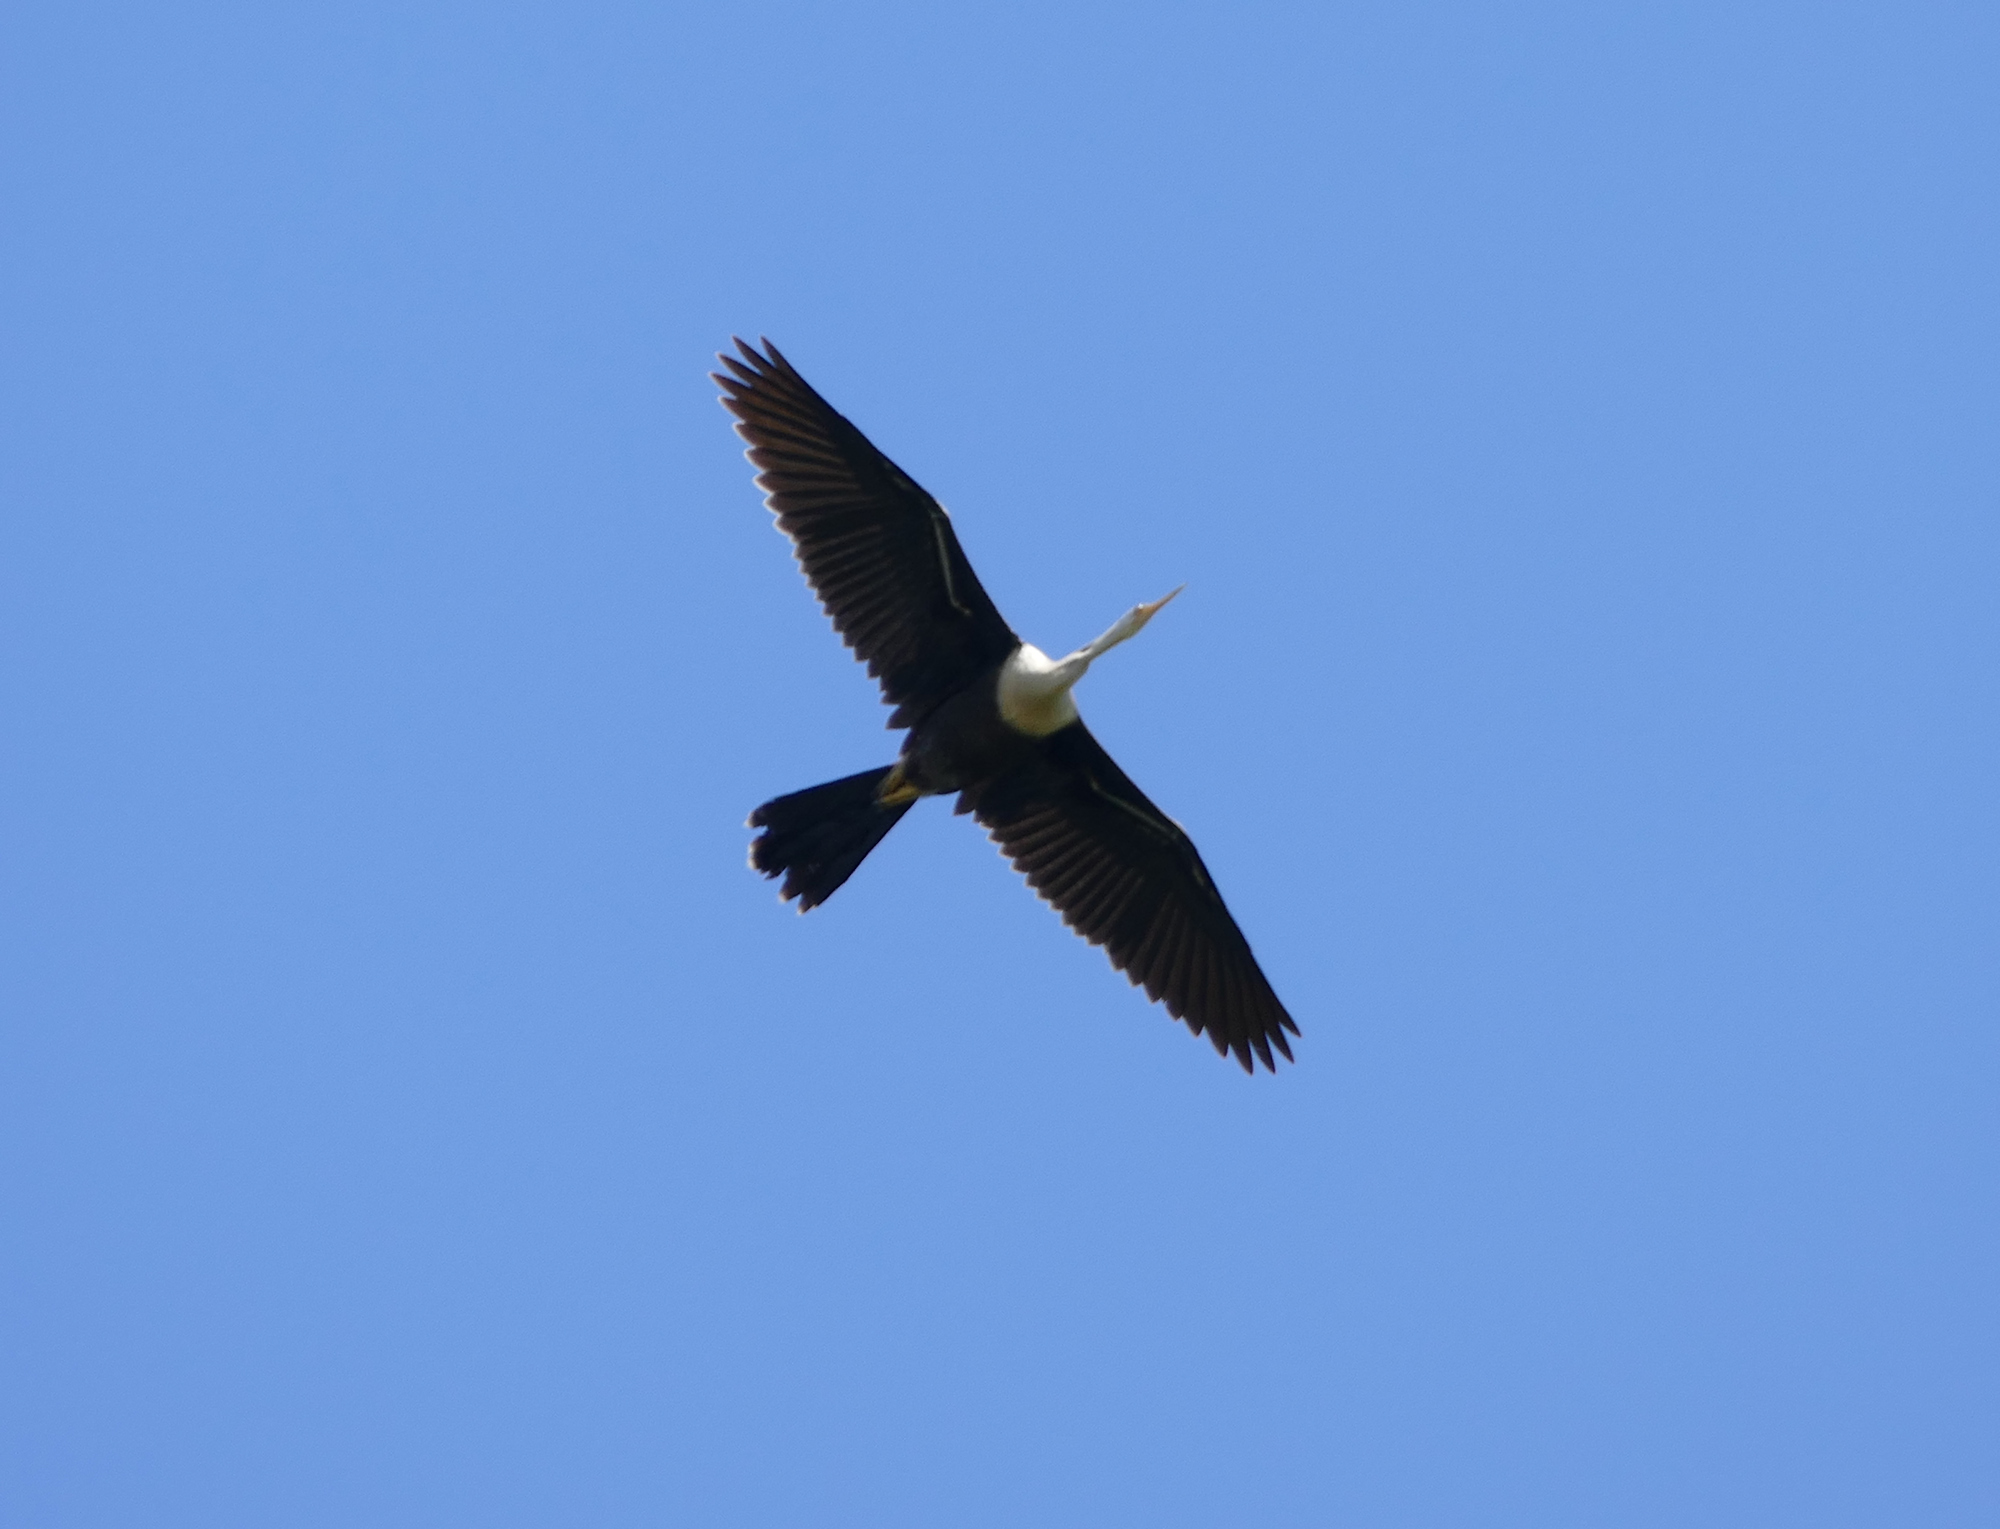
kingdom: Animalia
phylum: Chordata
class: Aves
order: Suliformes
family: Anhingidae
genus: Anhinga
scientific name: Anhinga anhinga
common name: Anhinga
